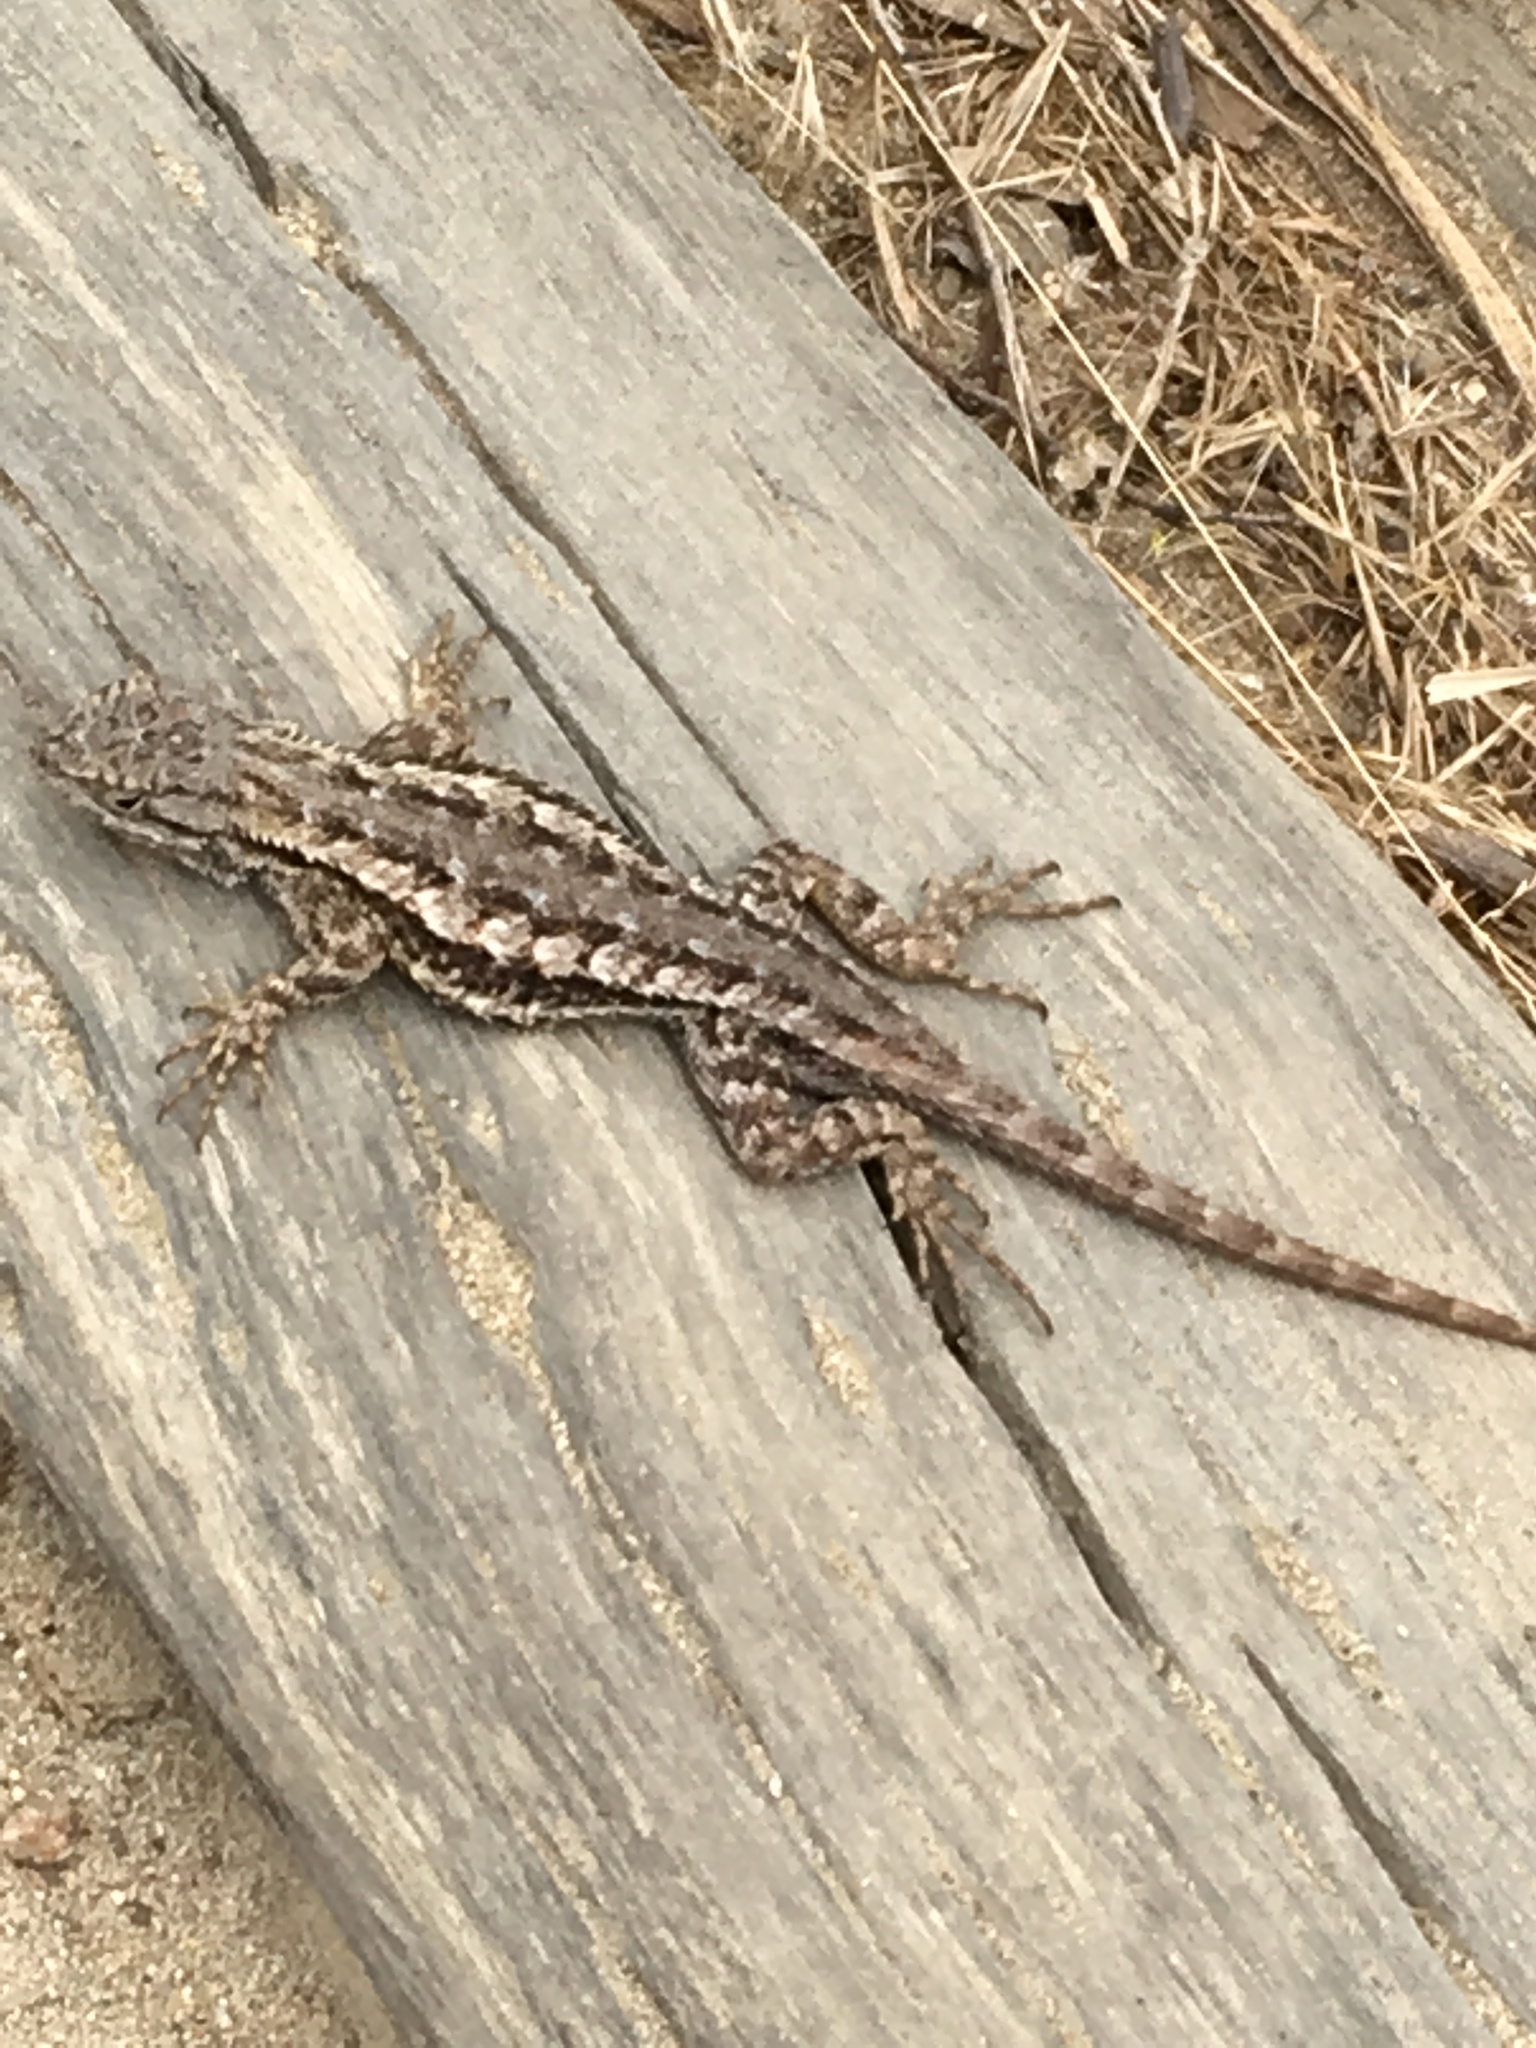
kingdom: Animalia
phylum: Chordata
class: Squamata
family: Phrynosomatidae
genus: Sceloporus
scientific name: Sceloporus occidentalis
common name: Western fence lizard
